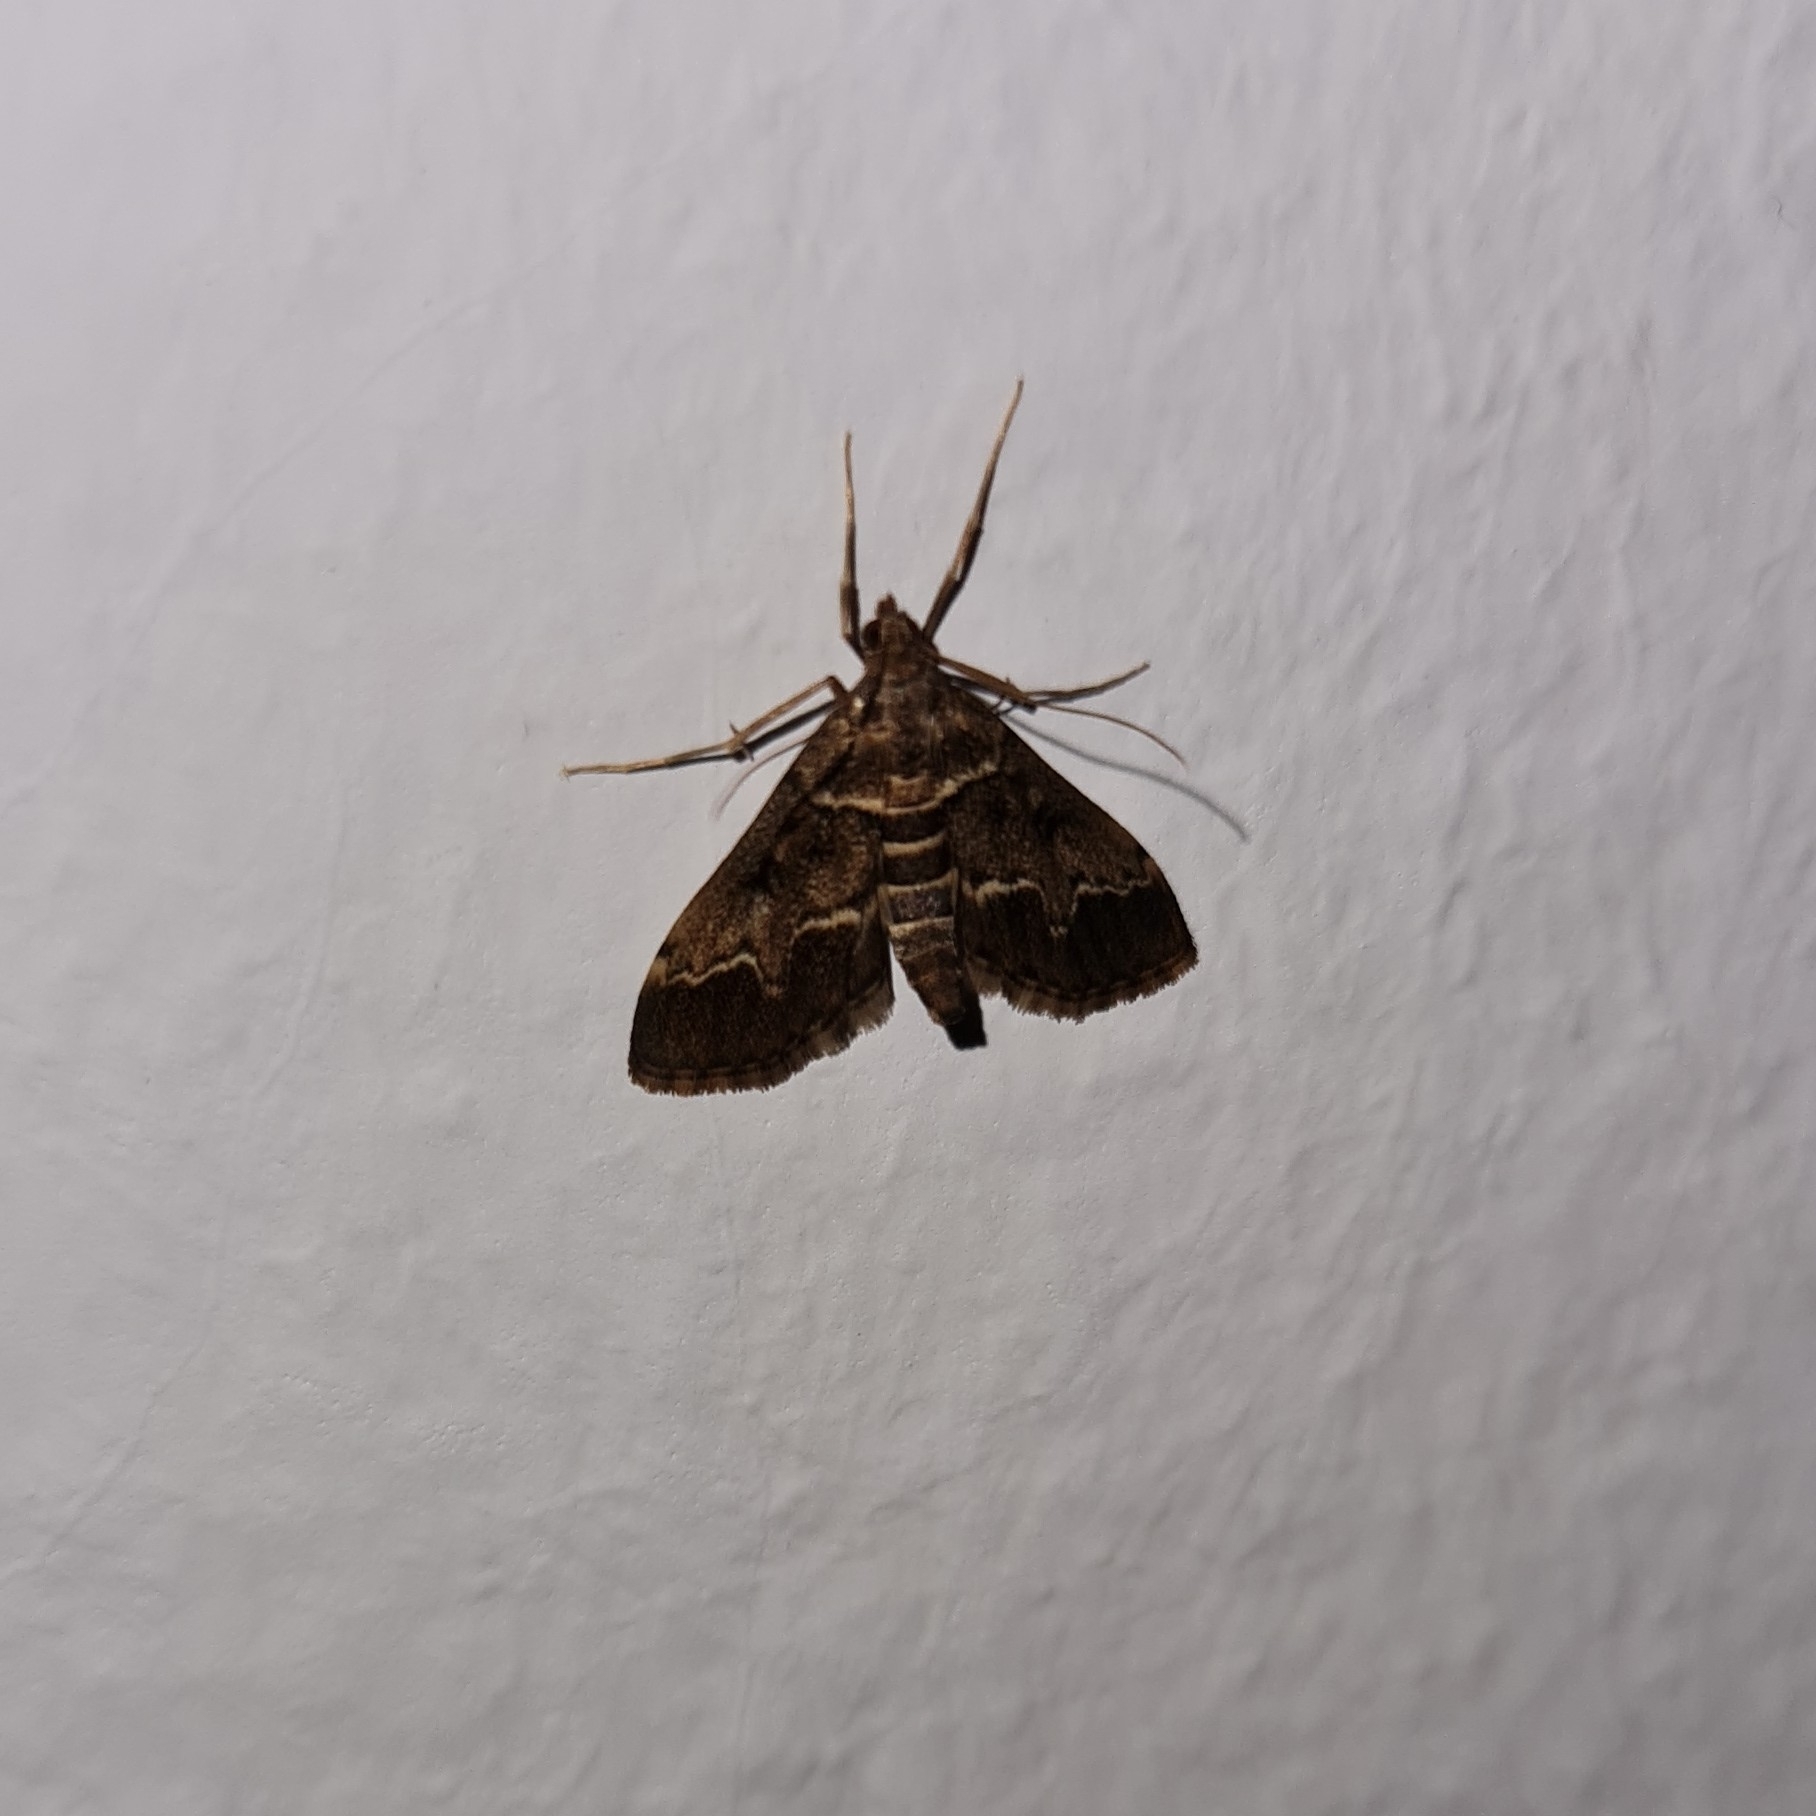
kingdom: Animalia
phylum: Arthropoda
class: Insecta
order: Lepidoptera
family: Crambidae
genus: Duponchelia
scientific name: Duponchelia fovealis
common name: Crambid moth
